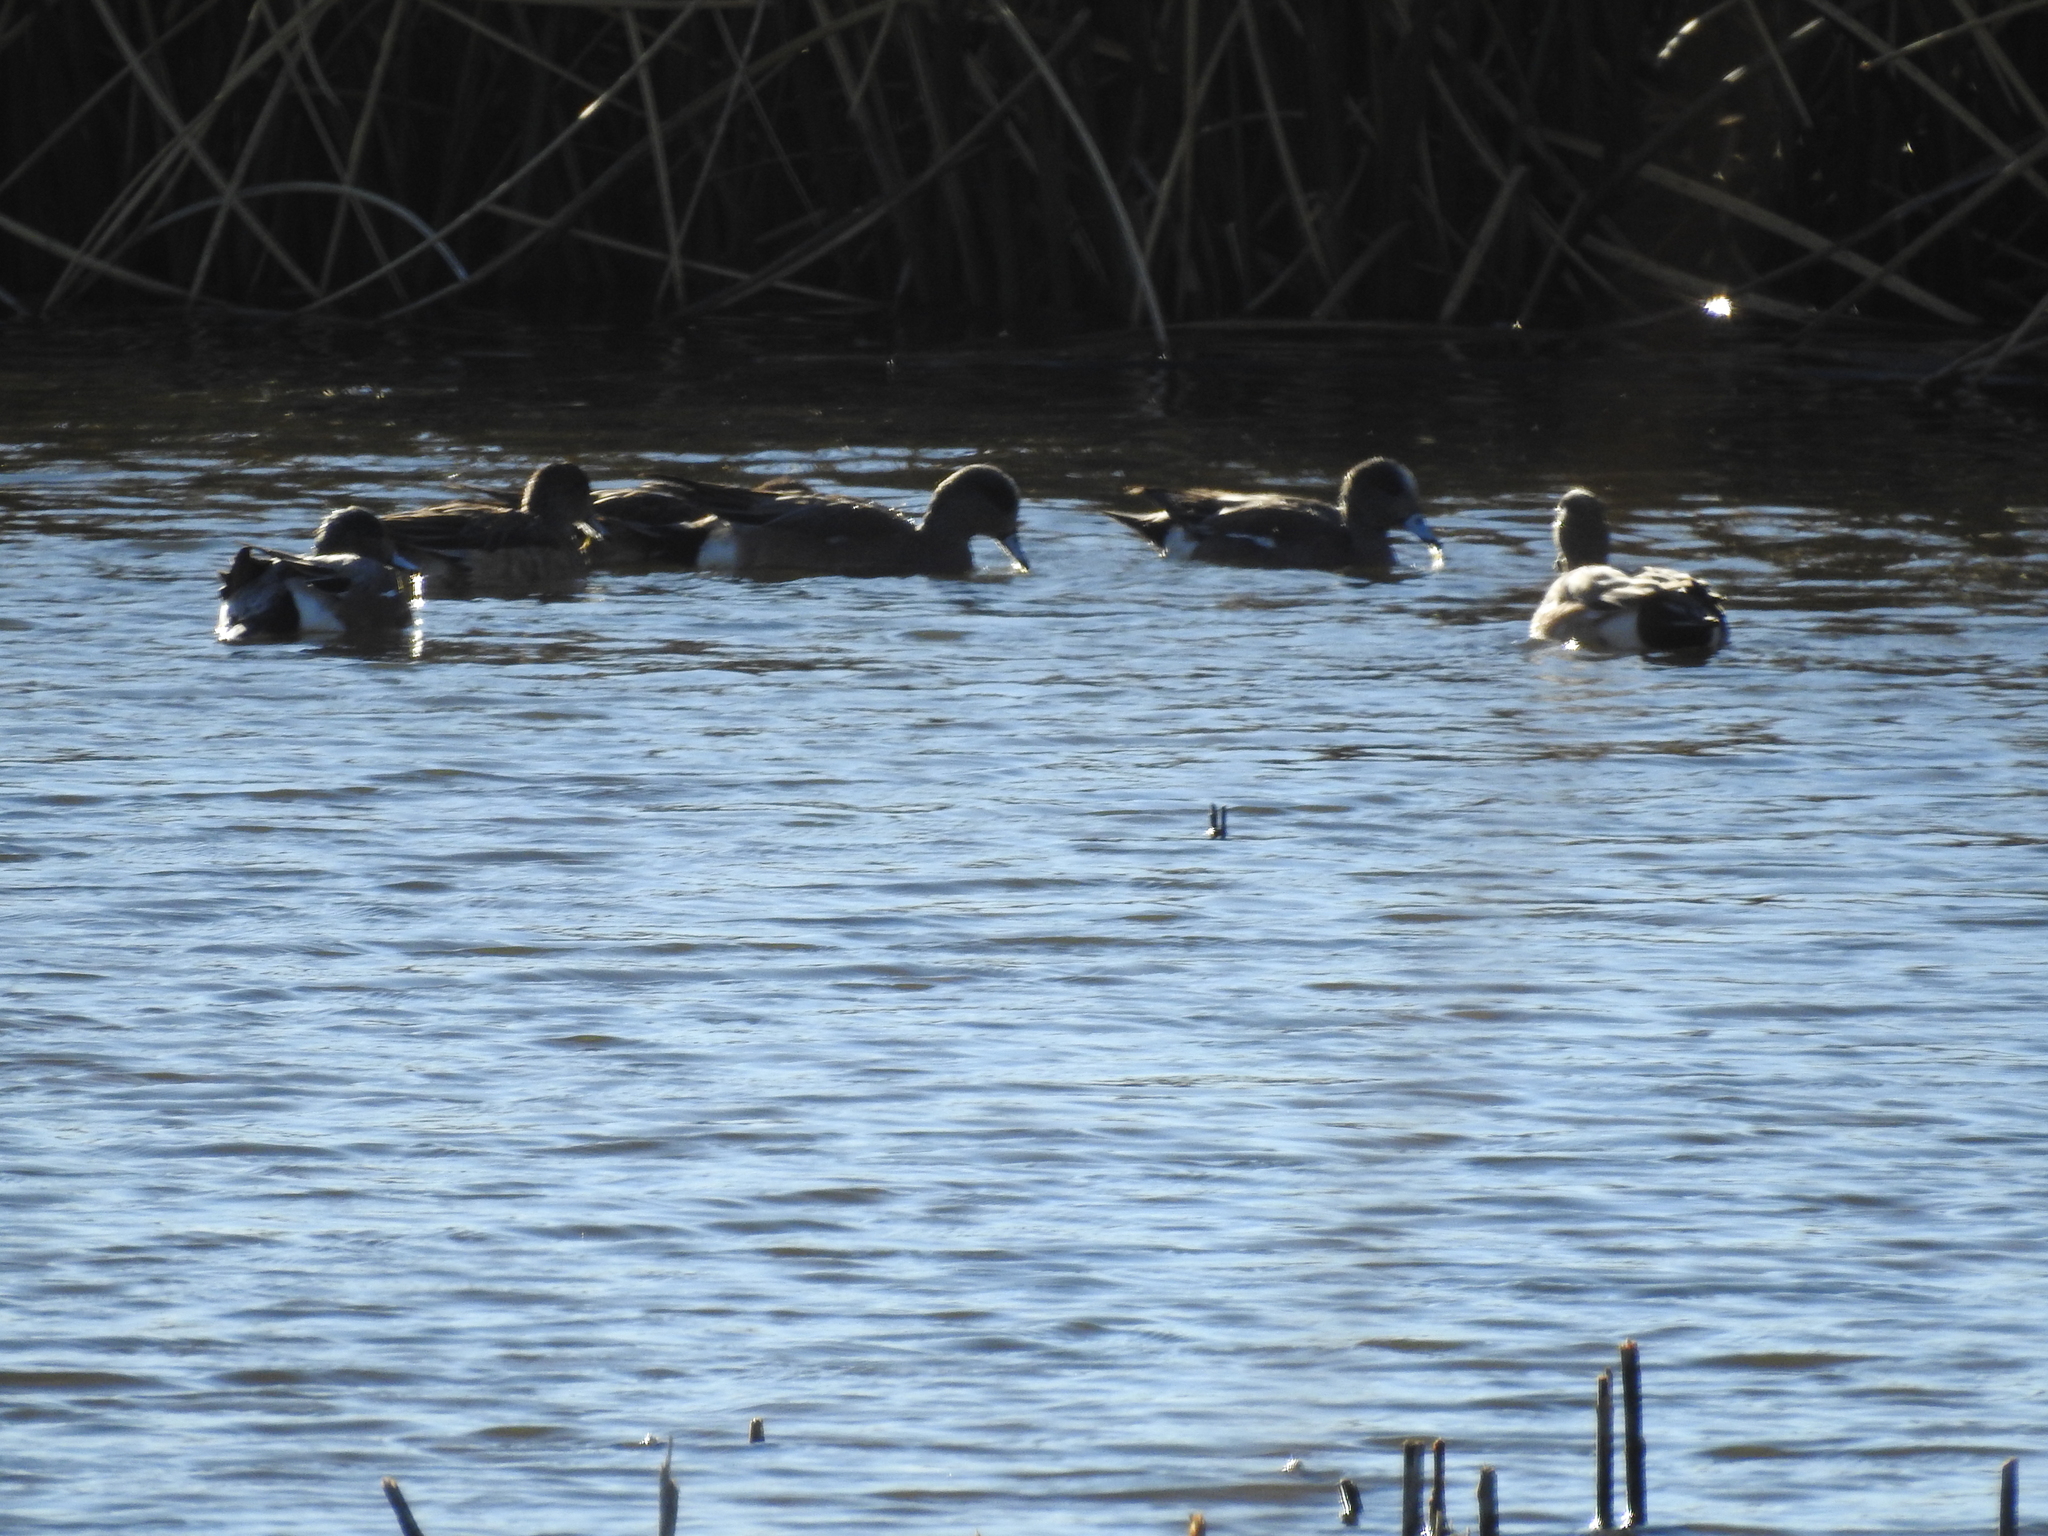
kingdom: Animalia
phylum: Chordata
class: Aves
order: Anseriformes
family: Anatidae
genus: Mareca
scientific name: Mareca americana
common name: American wigeon
